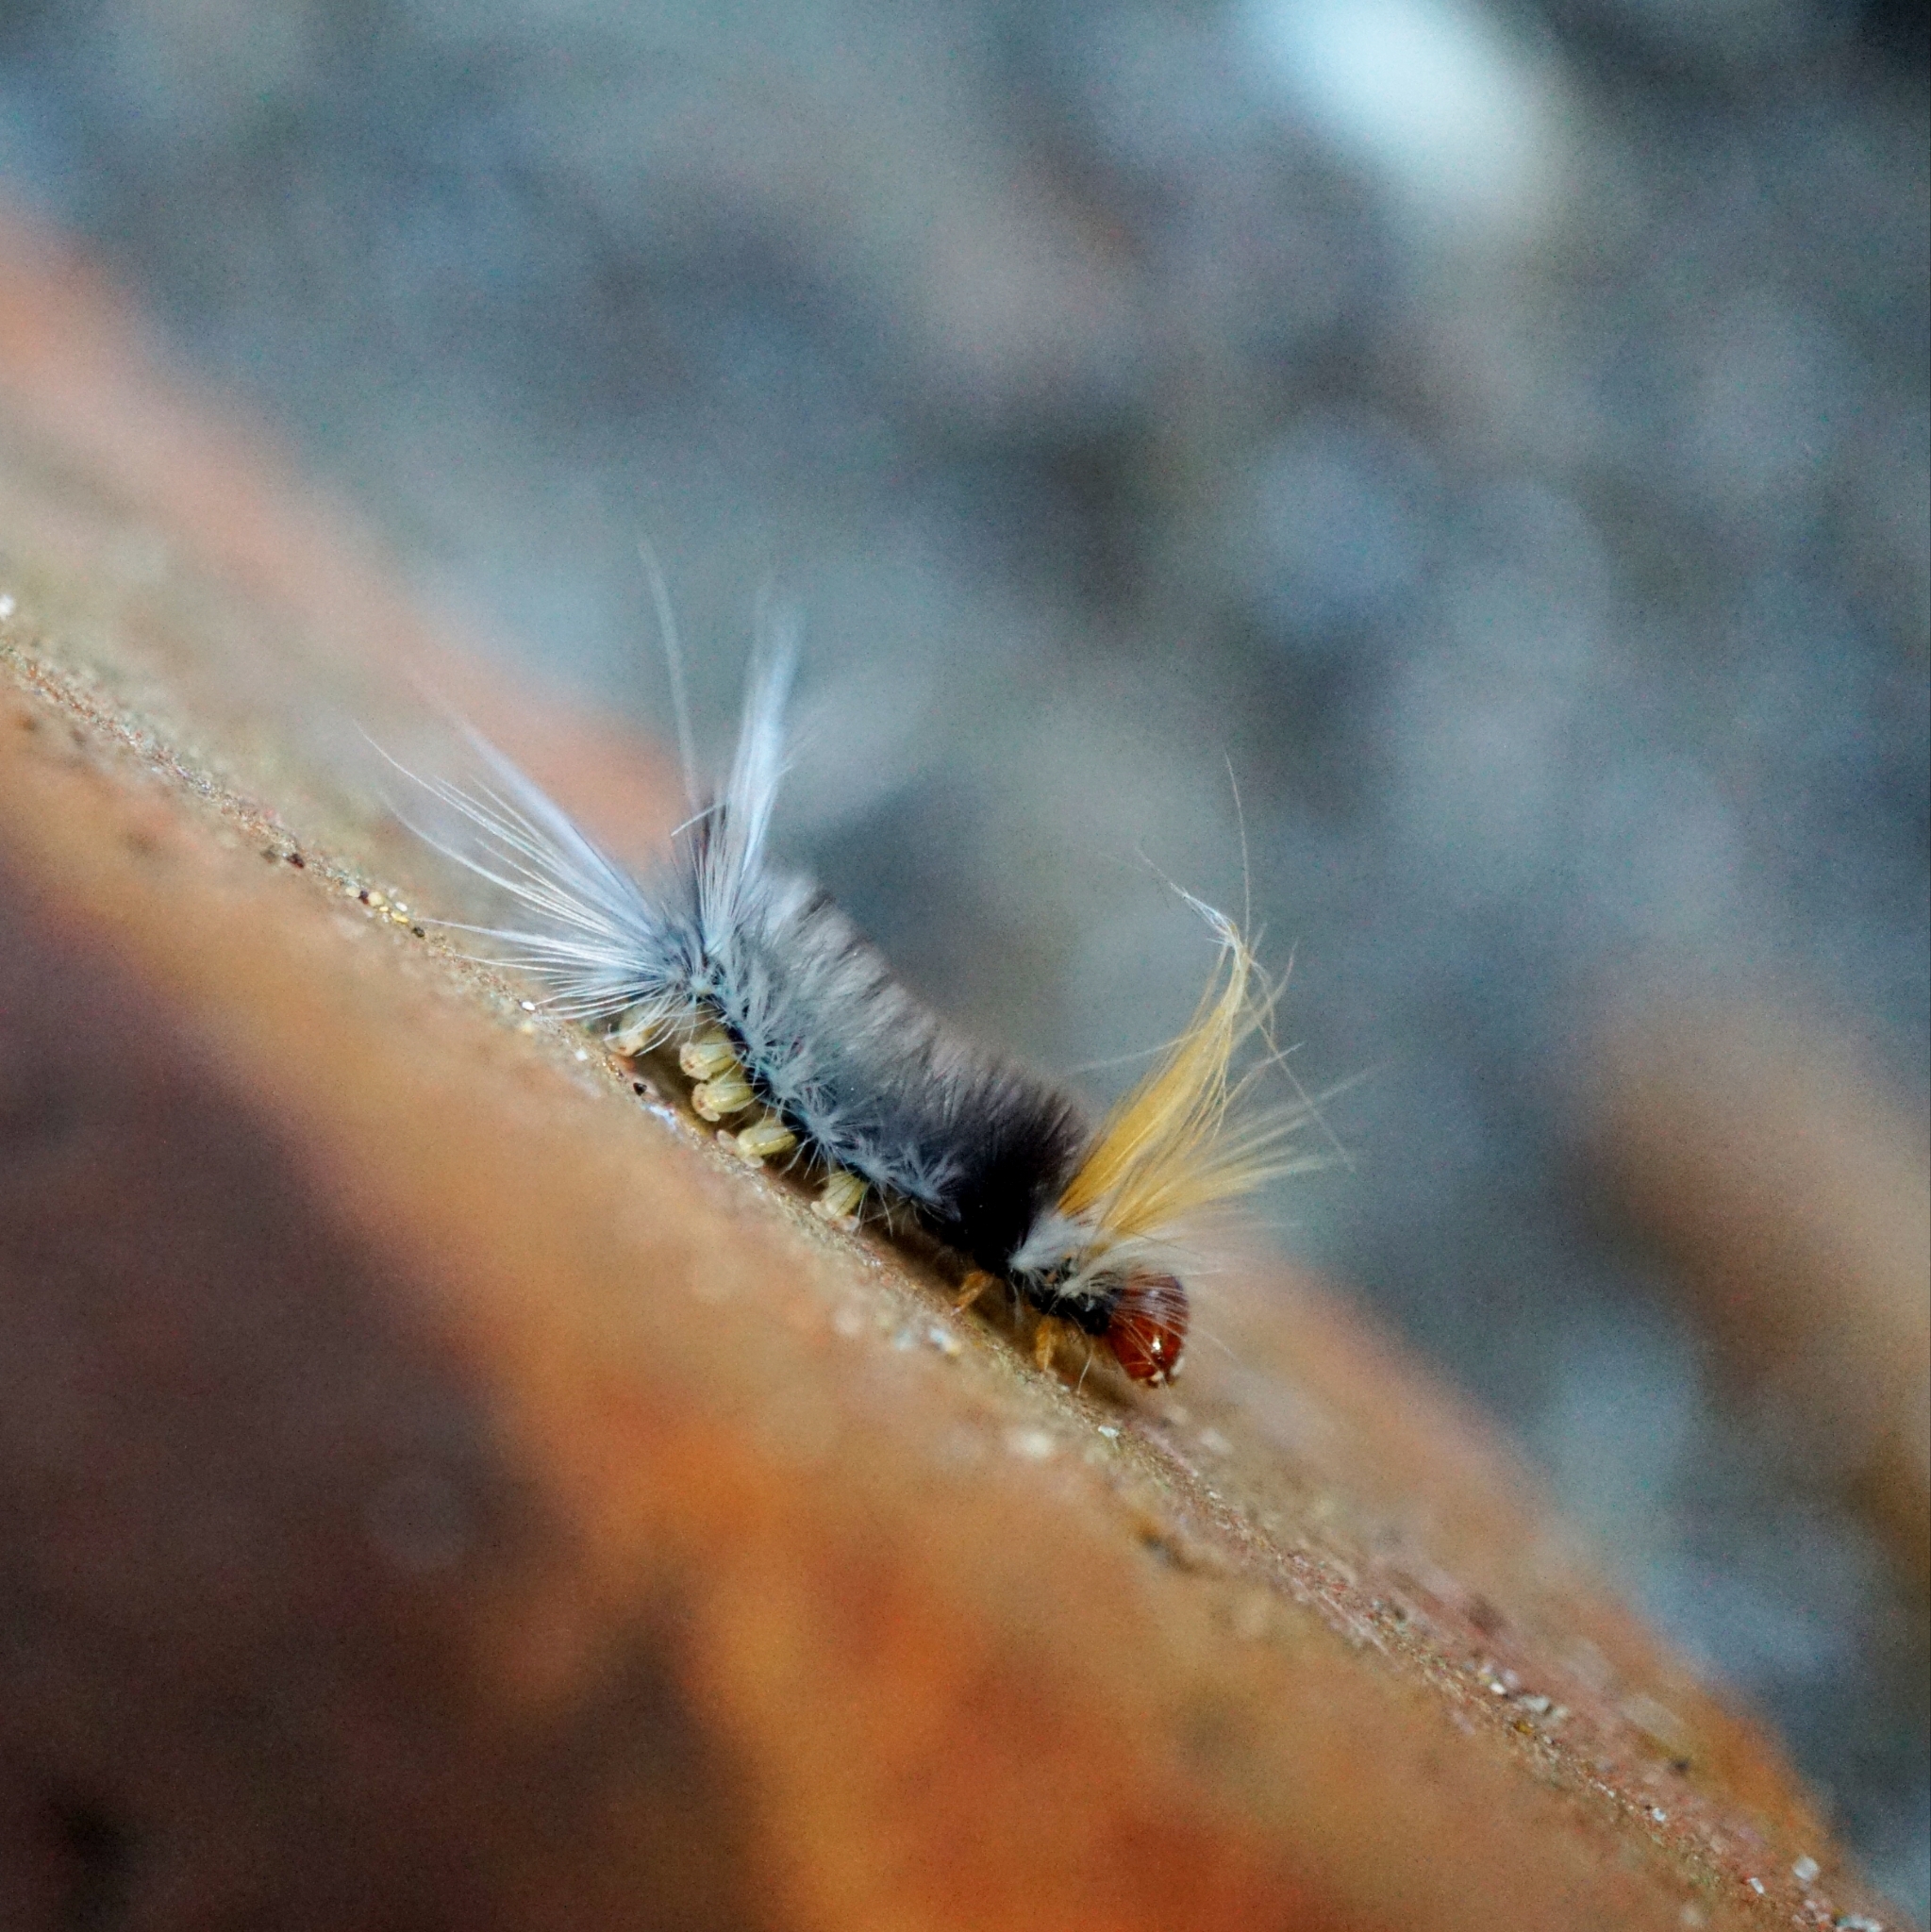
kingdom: Animalia
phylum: Arthropoda
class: Insecta
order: Lepidoptera
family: Erebidae
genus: Halysidota
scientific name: Halysidota ruscheweyhi
